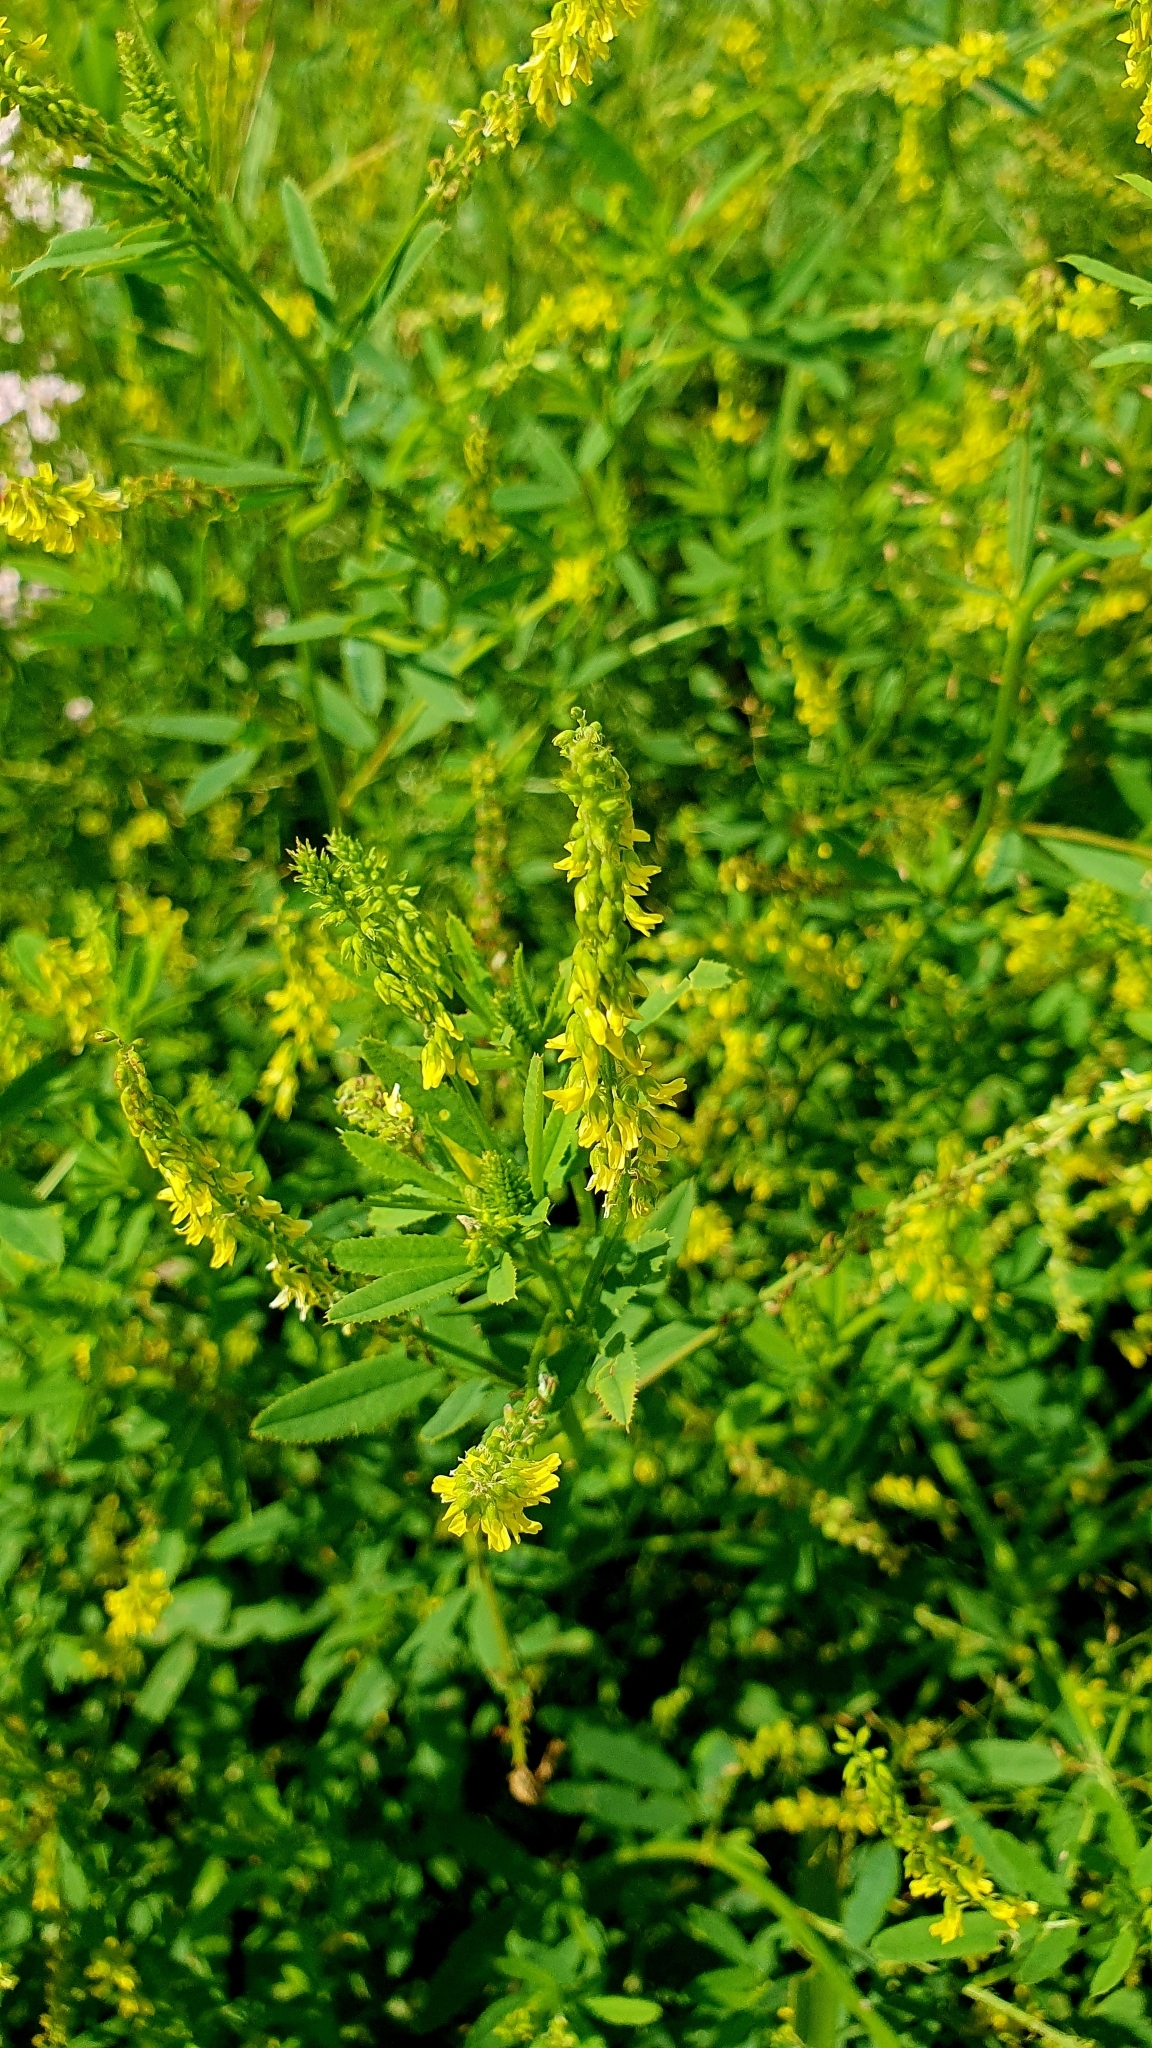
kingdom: Plantae
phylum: Tracheophyta
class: Magnoliopsida
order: Fabales
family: Fabaceae
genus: Melilotus
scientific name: Melilotus officinalis
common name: Sweetclover
